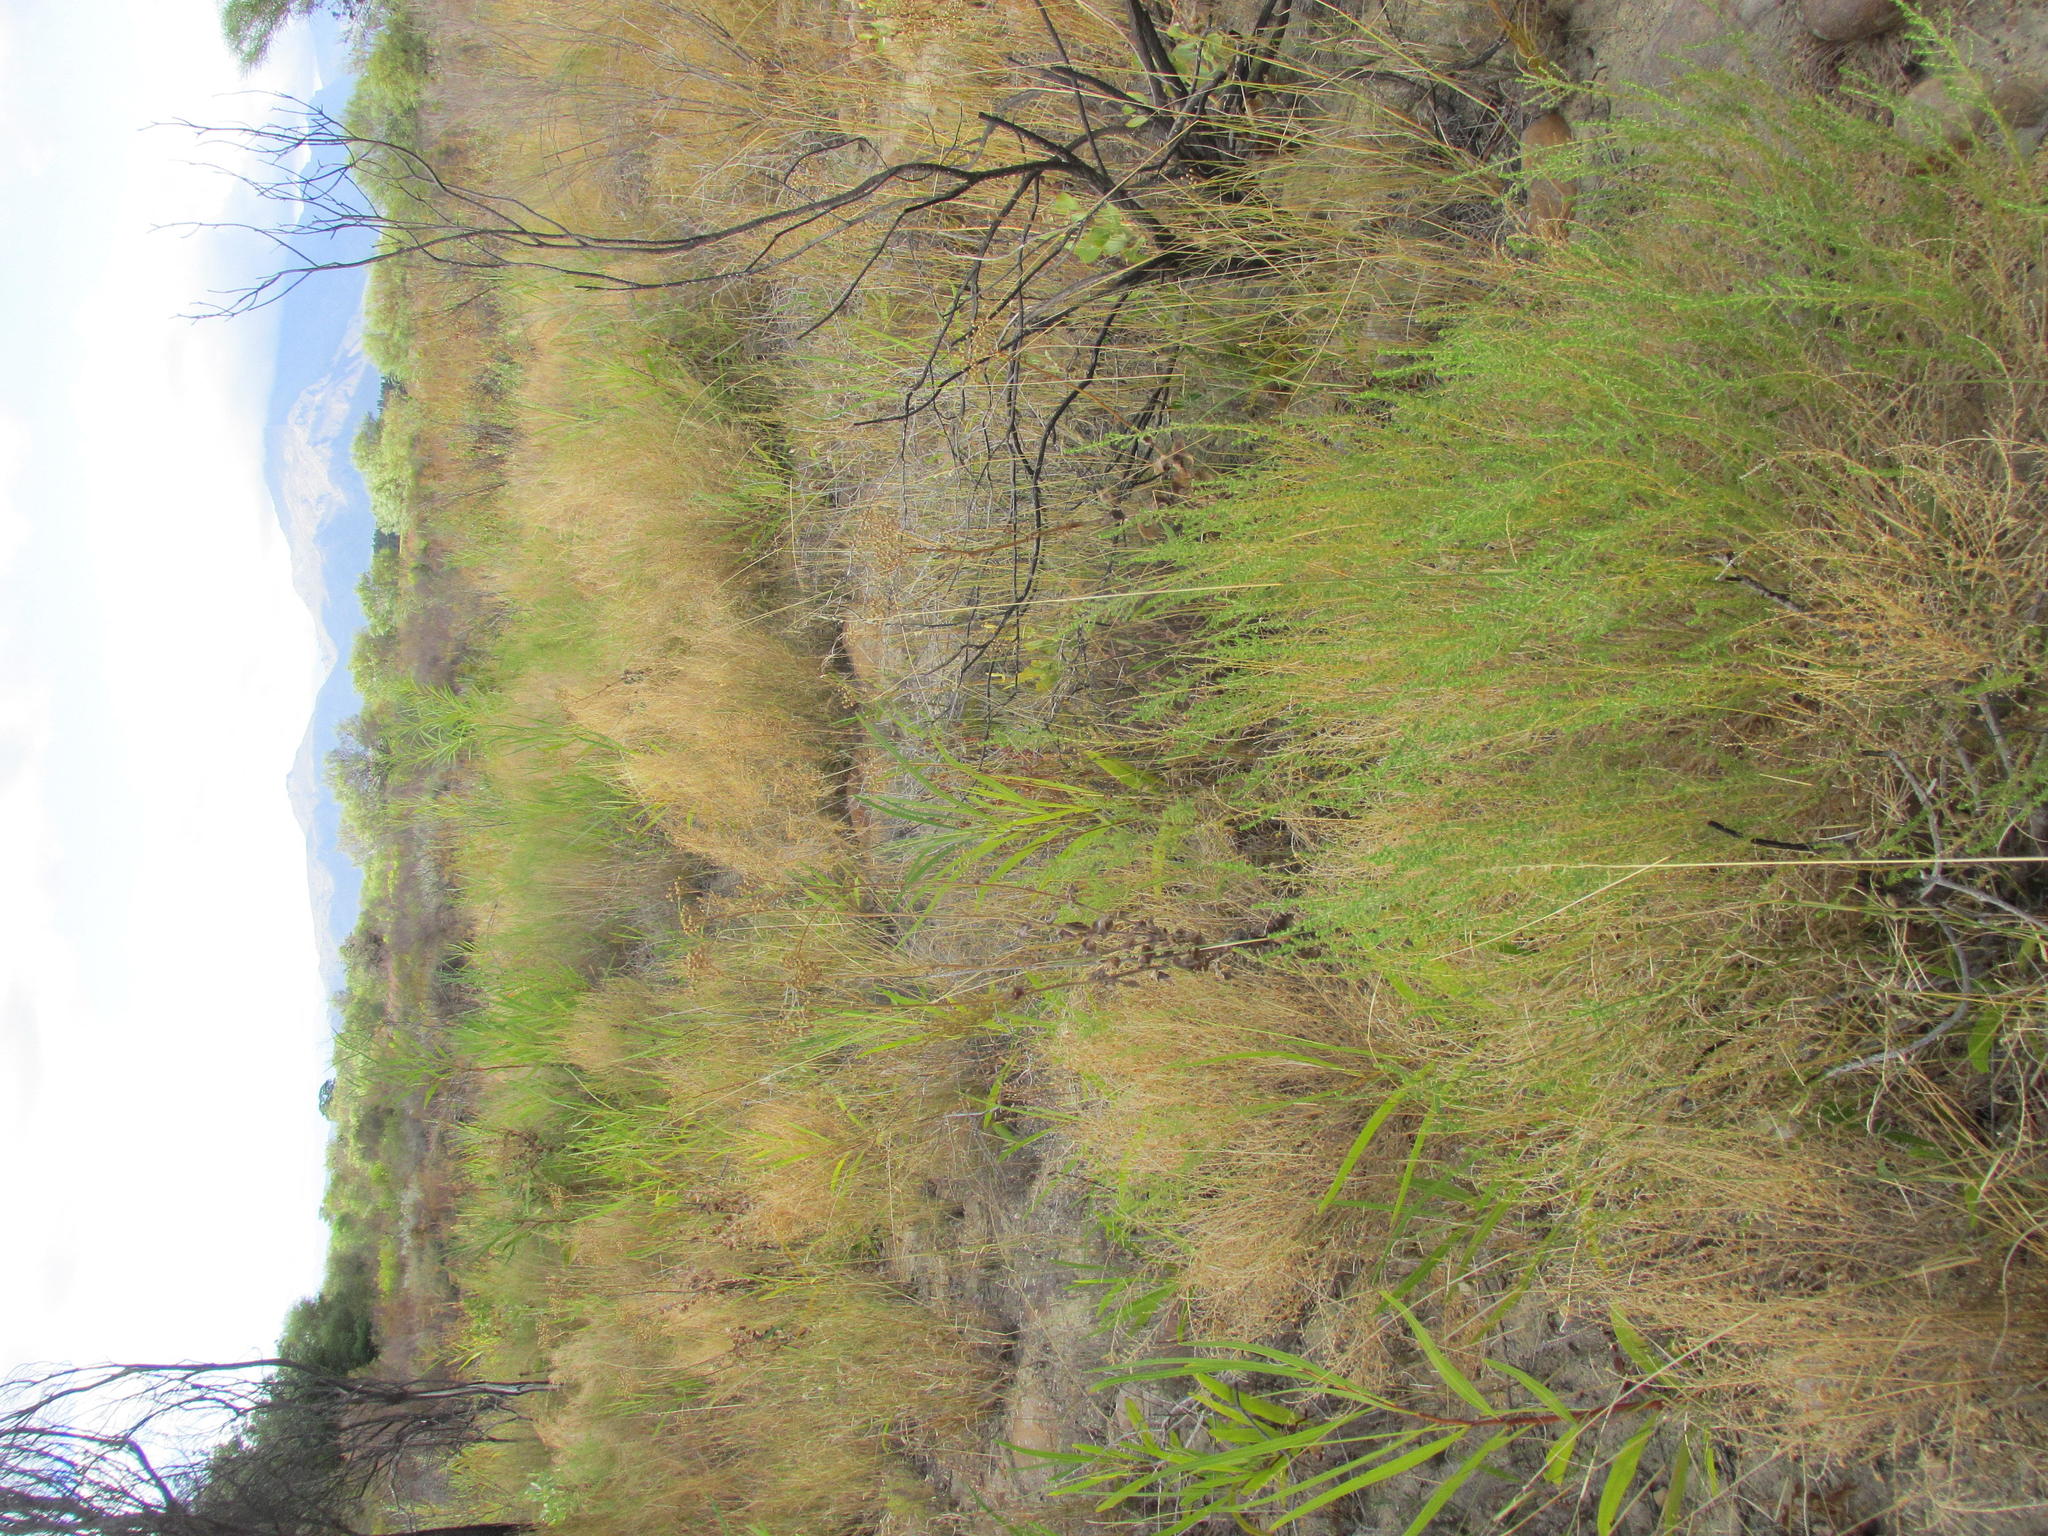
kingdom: Plantae
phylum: Tracheophyta
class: Magnoliopsida
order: Fabales
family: Fabaceae
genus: Aspalathus
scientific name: Aspalathus amoena
